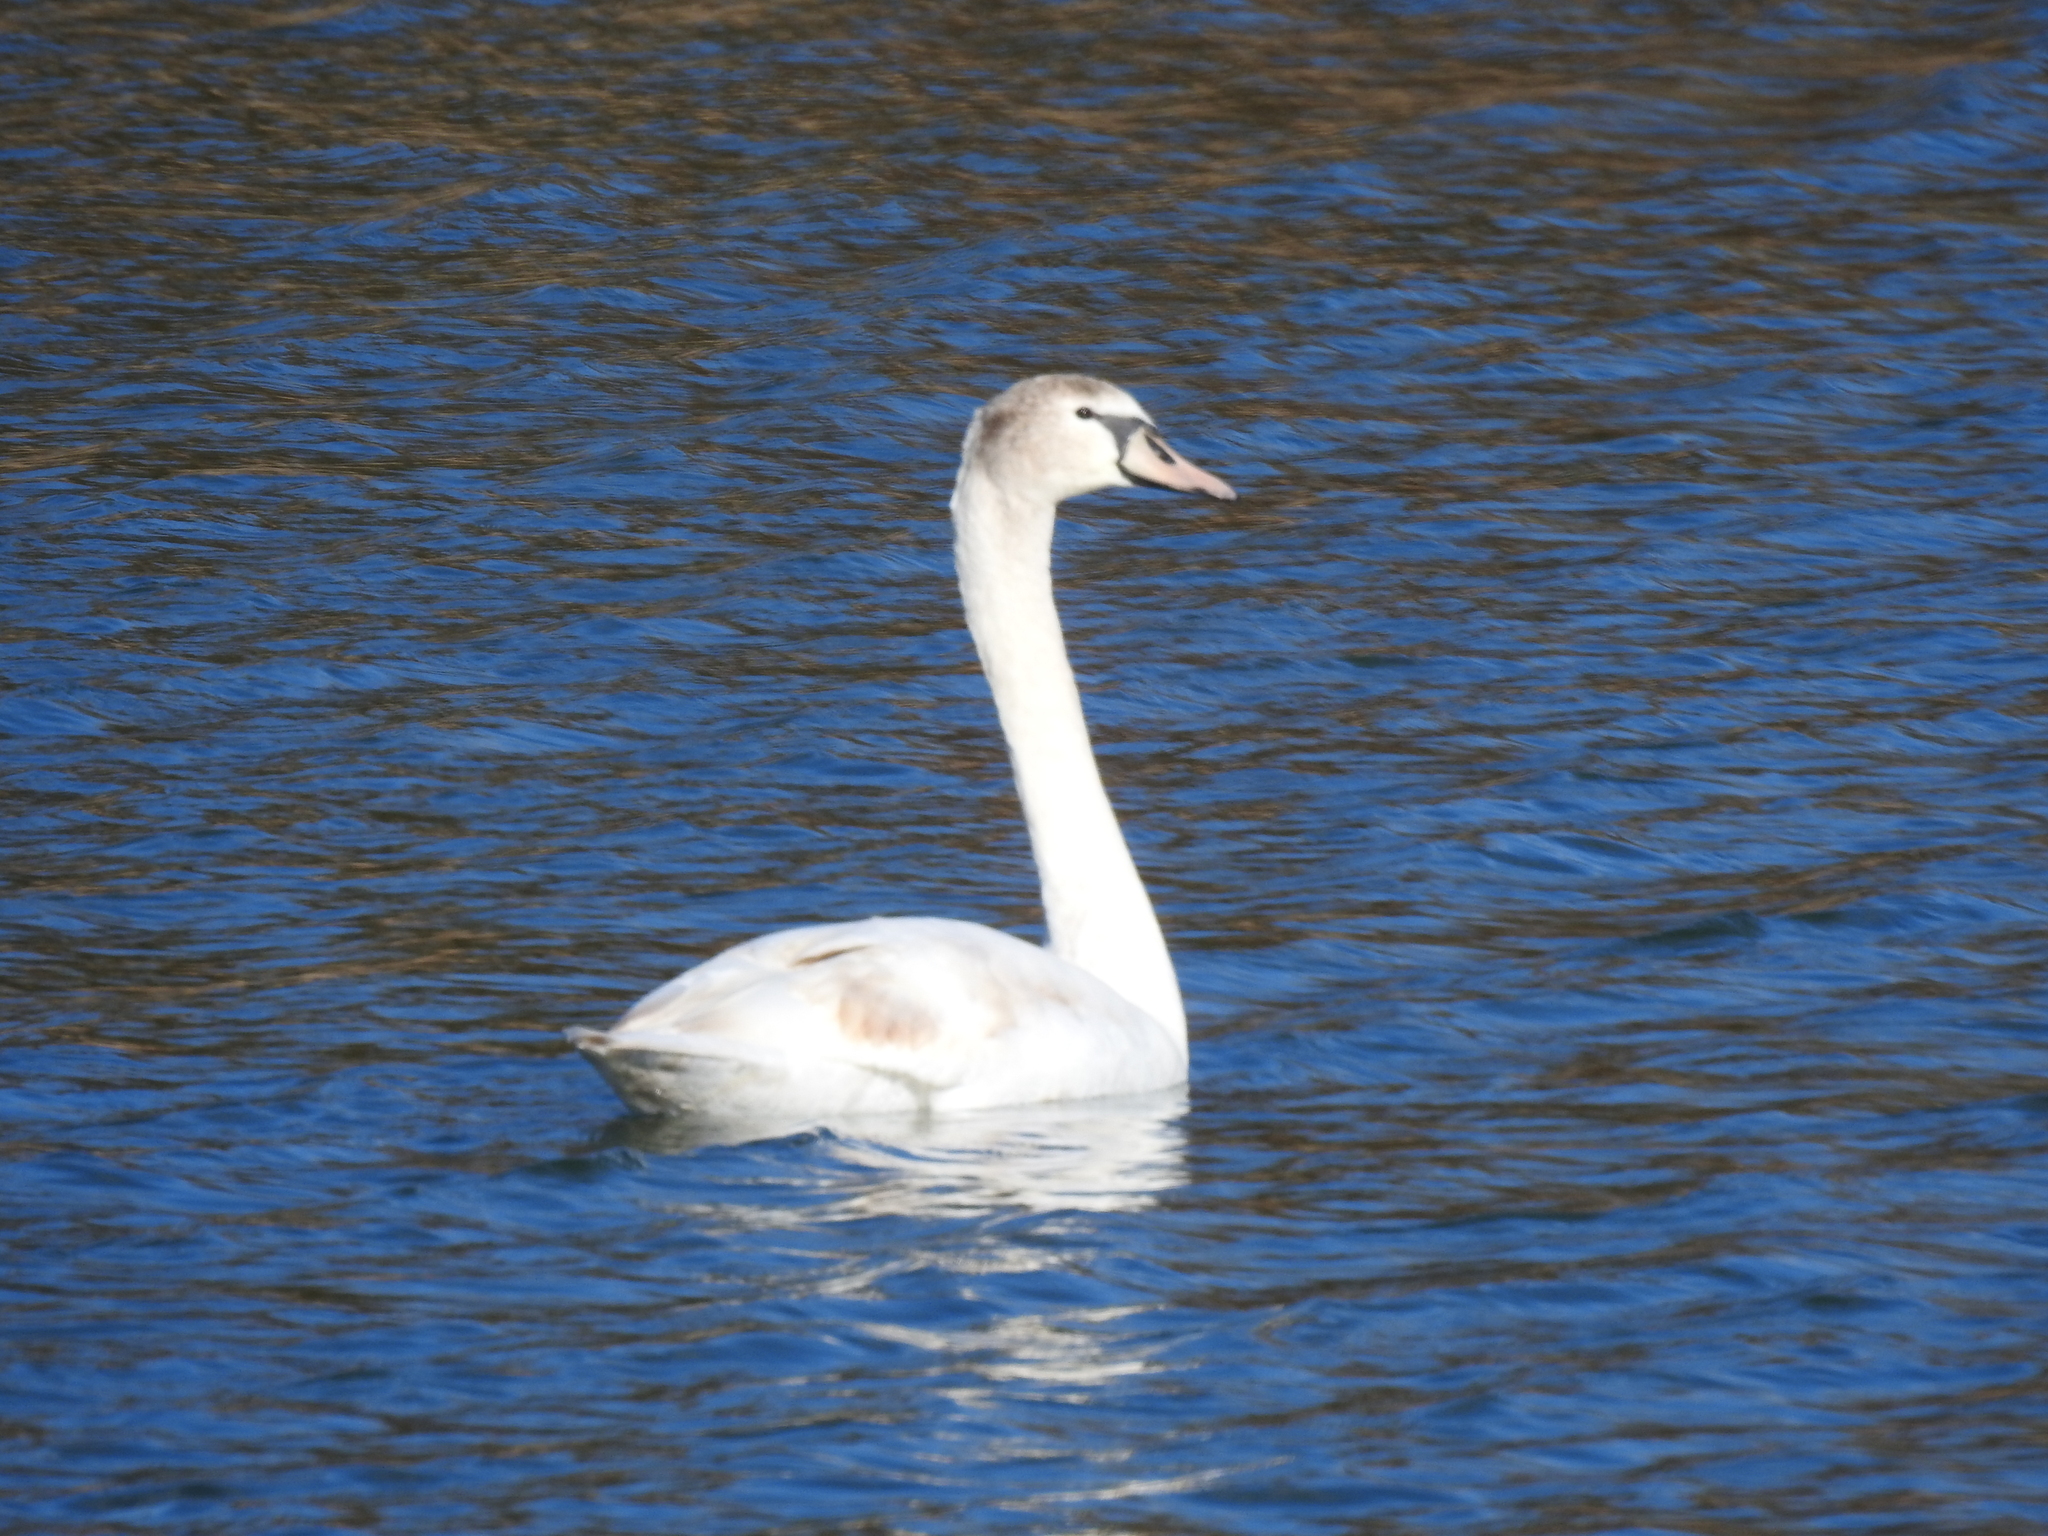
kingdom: Animalia
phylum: Chordata
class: Aves
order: Anseriformes
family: Anatidae
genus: Cygnus
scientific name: Cygnus olor
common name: Mute swan
